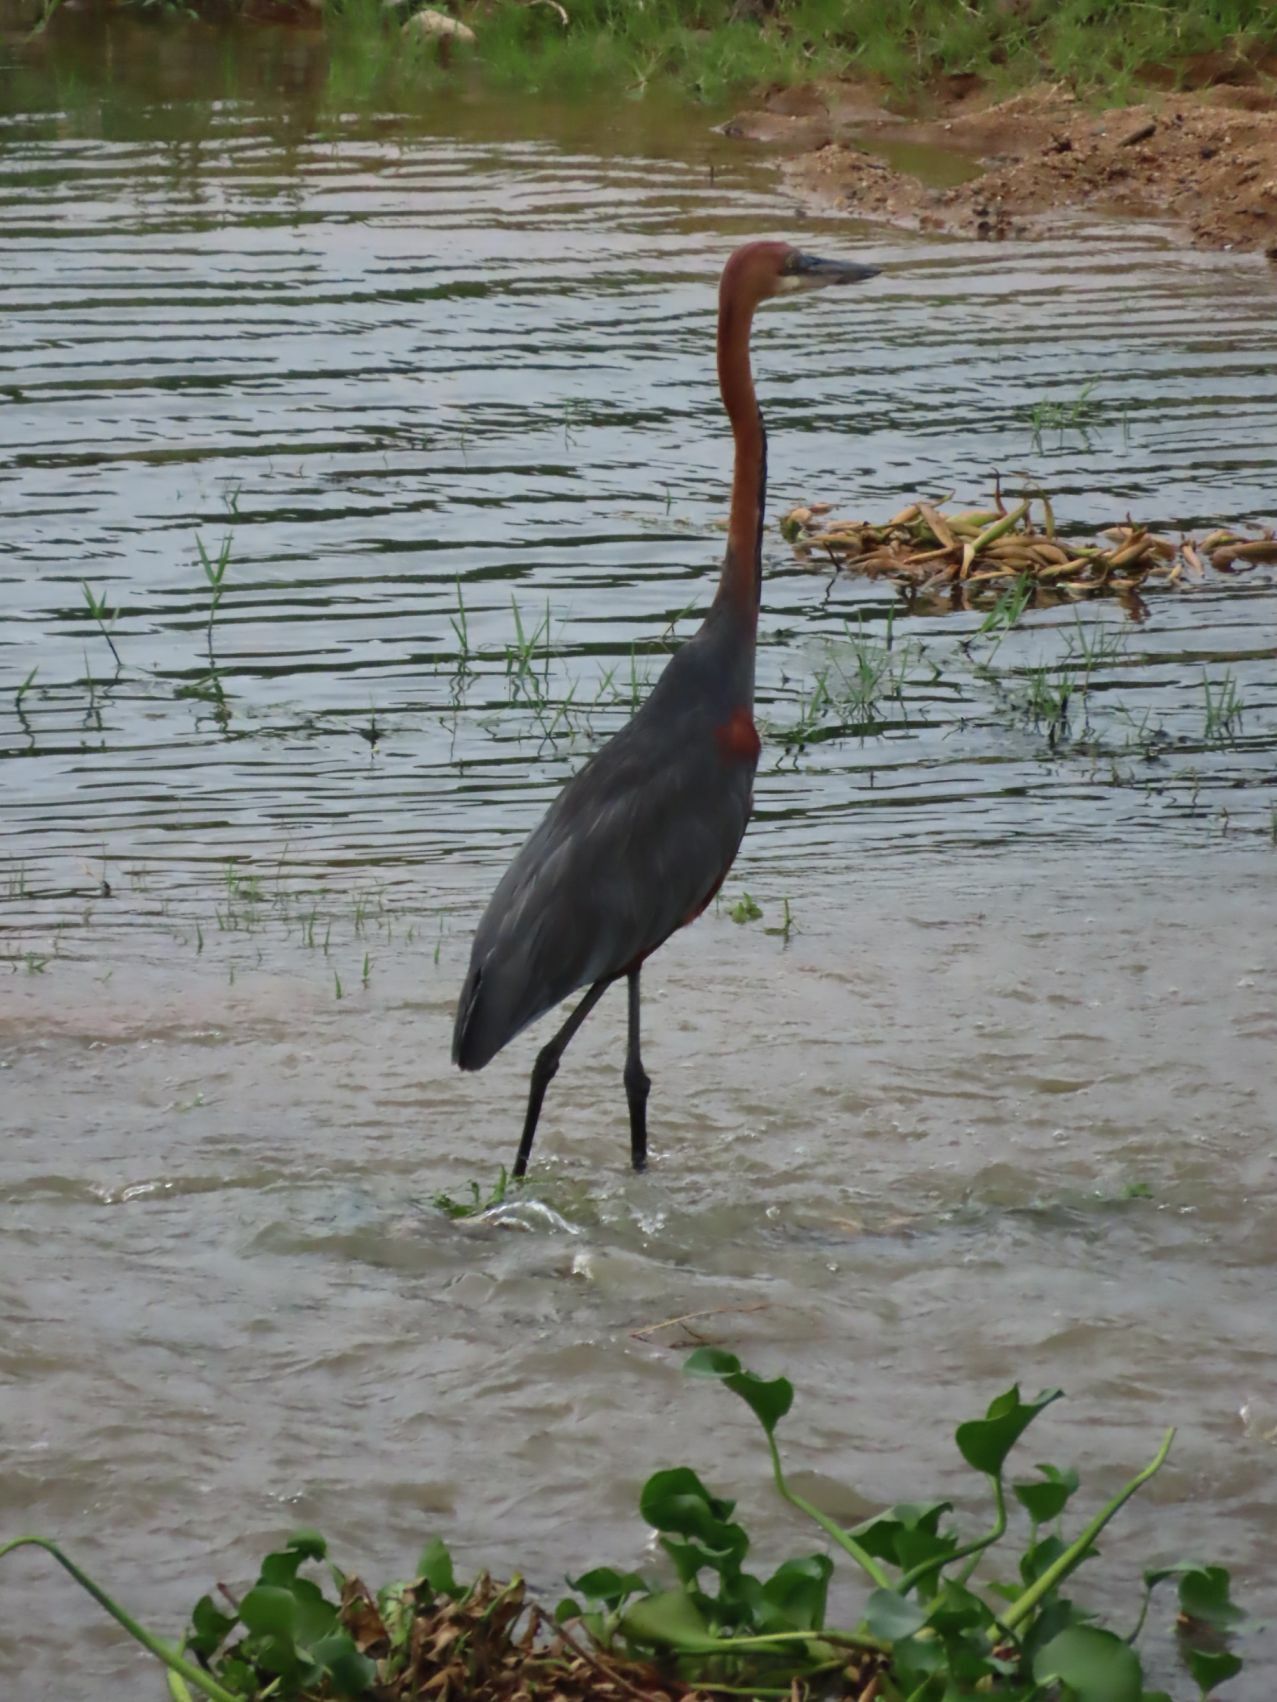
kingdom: Animalia
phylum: Chordata
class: Aves
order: Pelecaniformes
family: Ardeidae
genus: Ardea
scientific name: Ardea goliath
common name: Goliath heron
